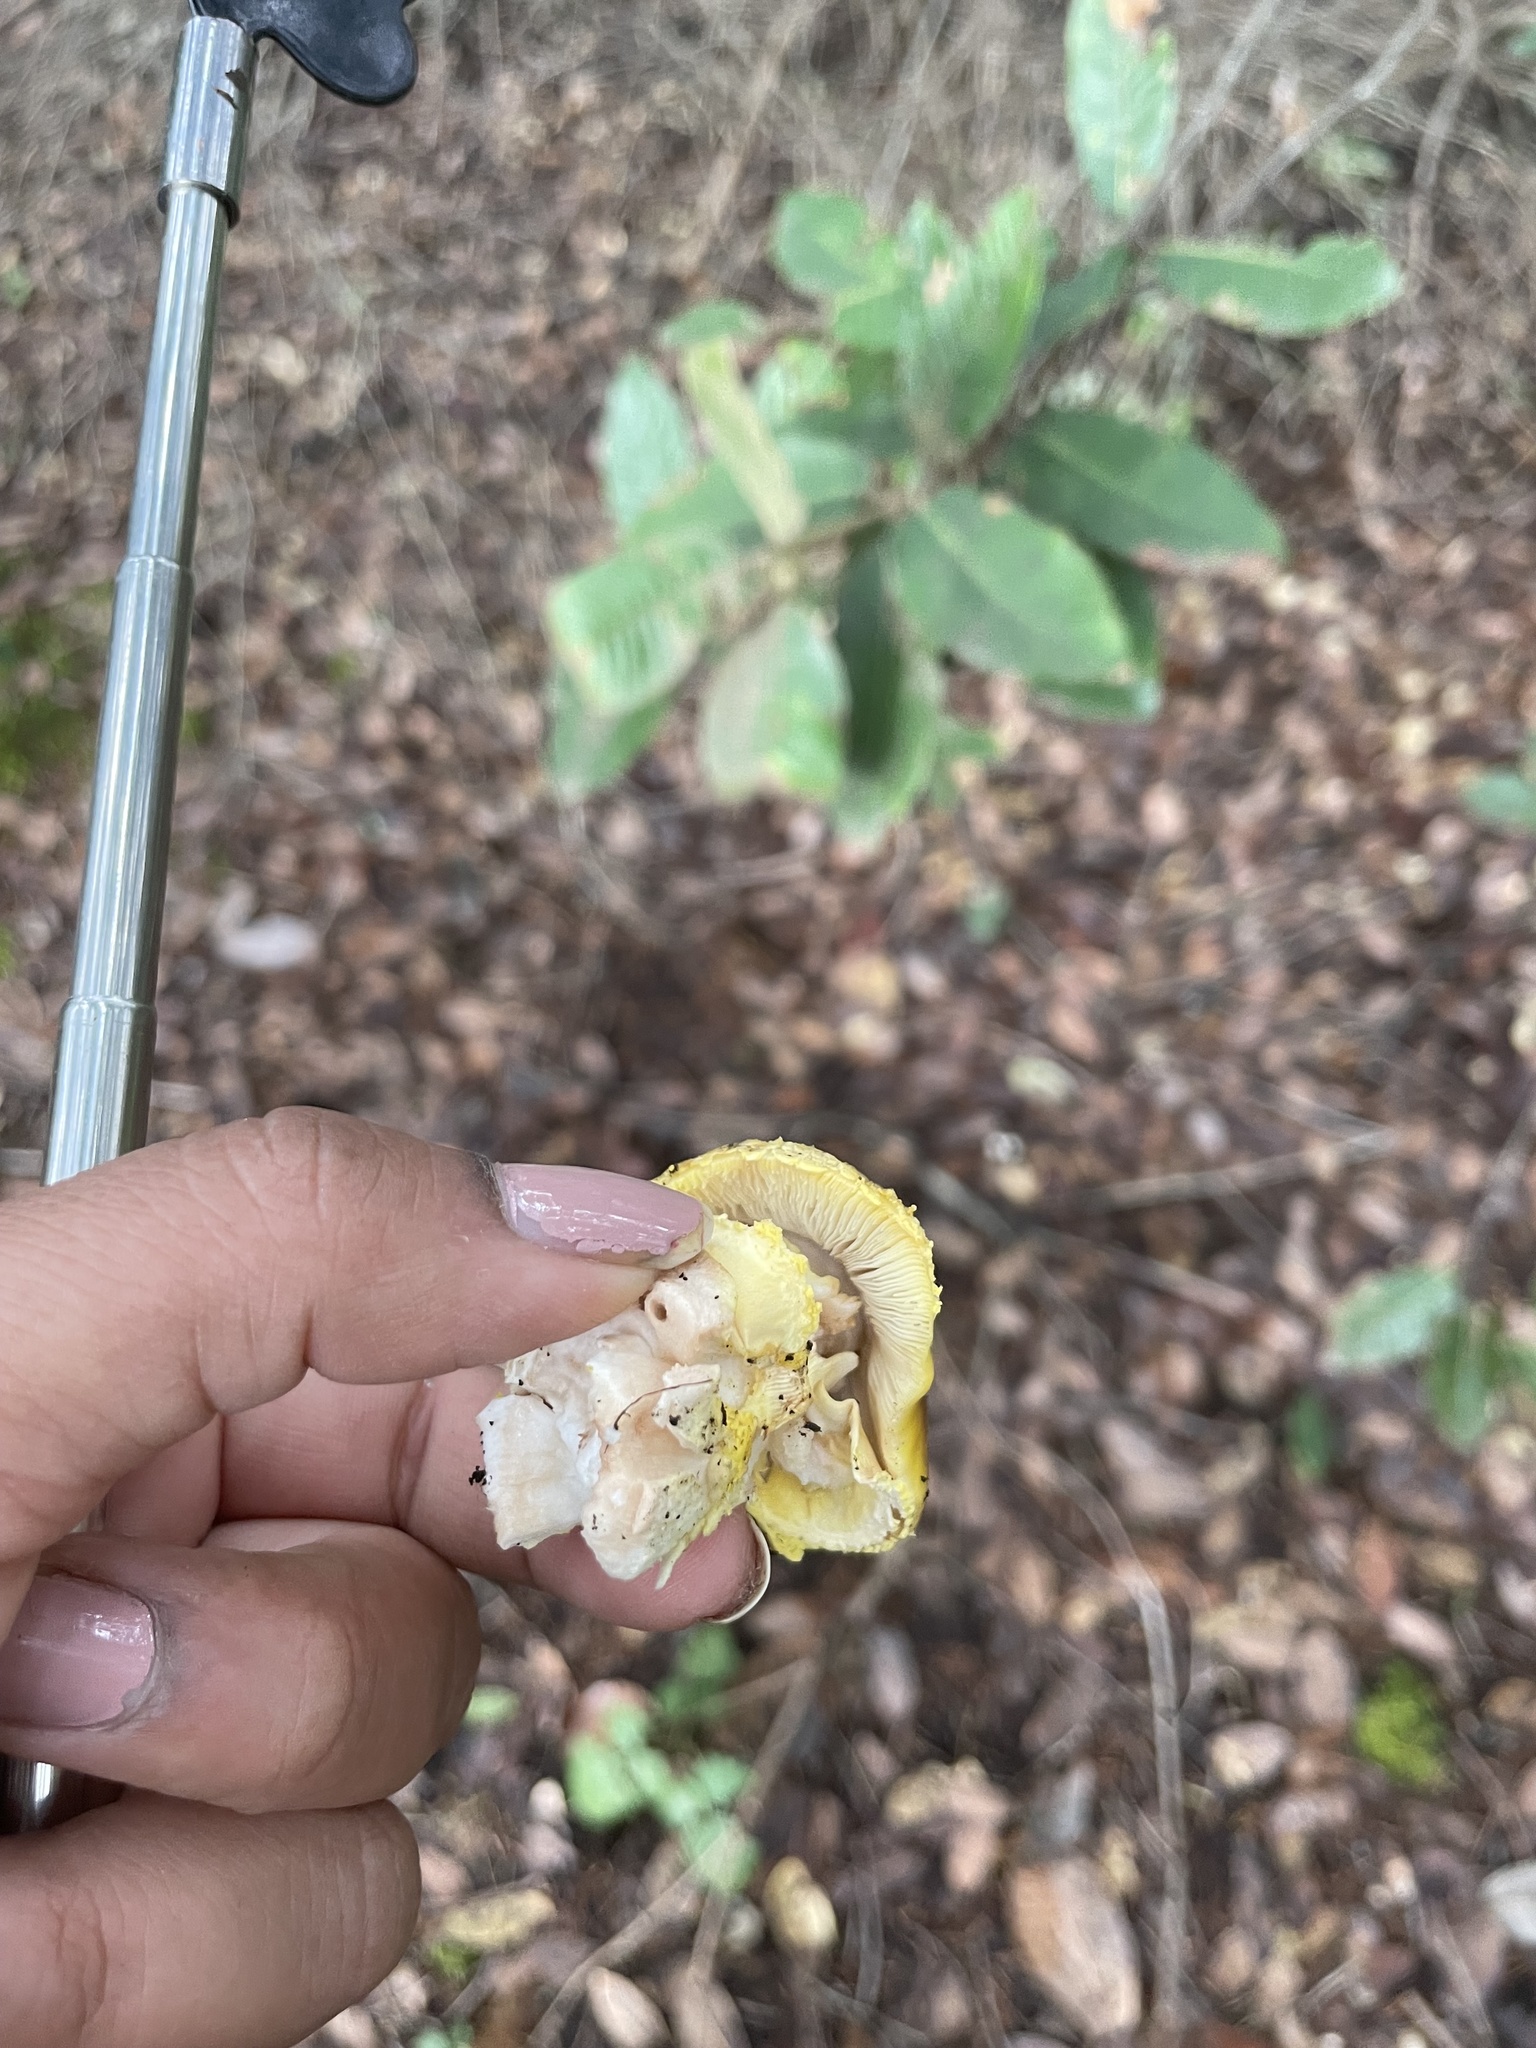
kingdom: Fungi
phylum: Basidiomycota
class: Agaricomycetes
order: Agaricales
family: Amanitaceae
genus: Amanita
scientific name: Amanita augusta
